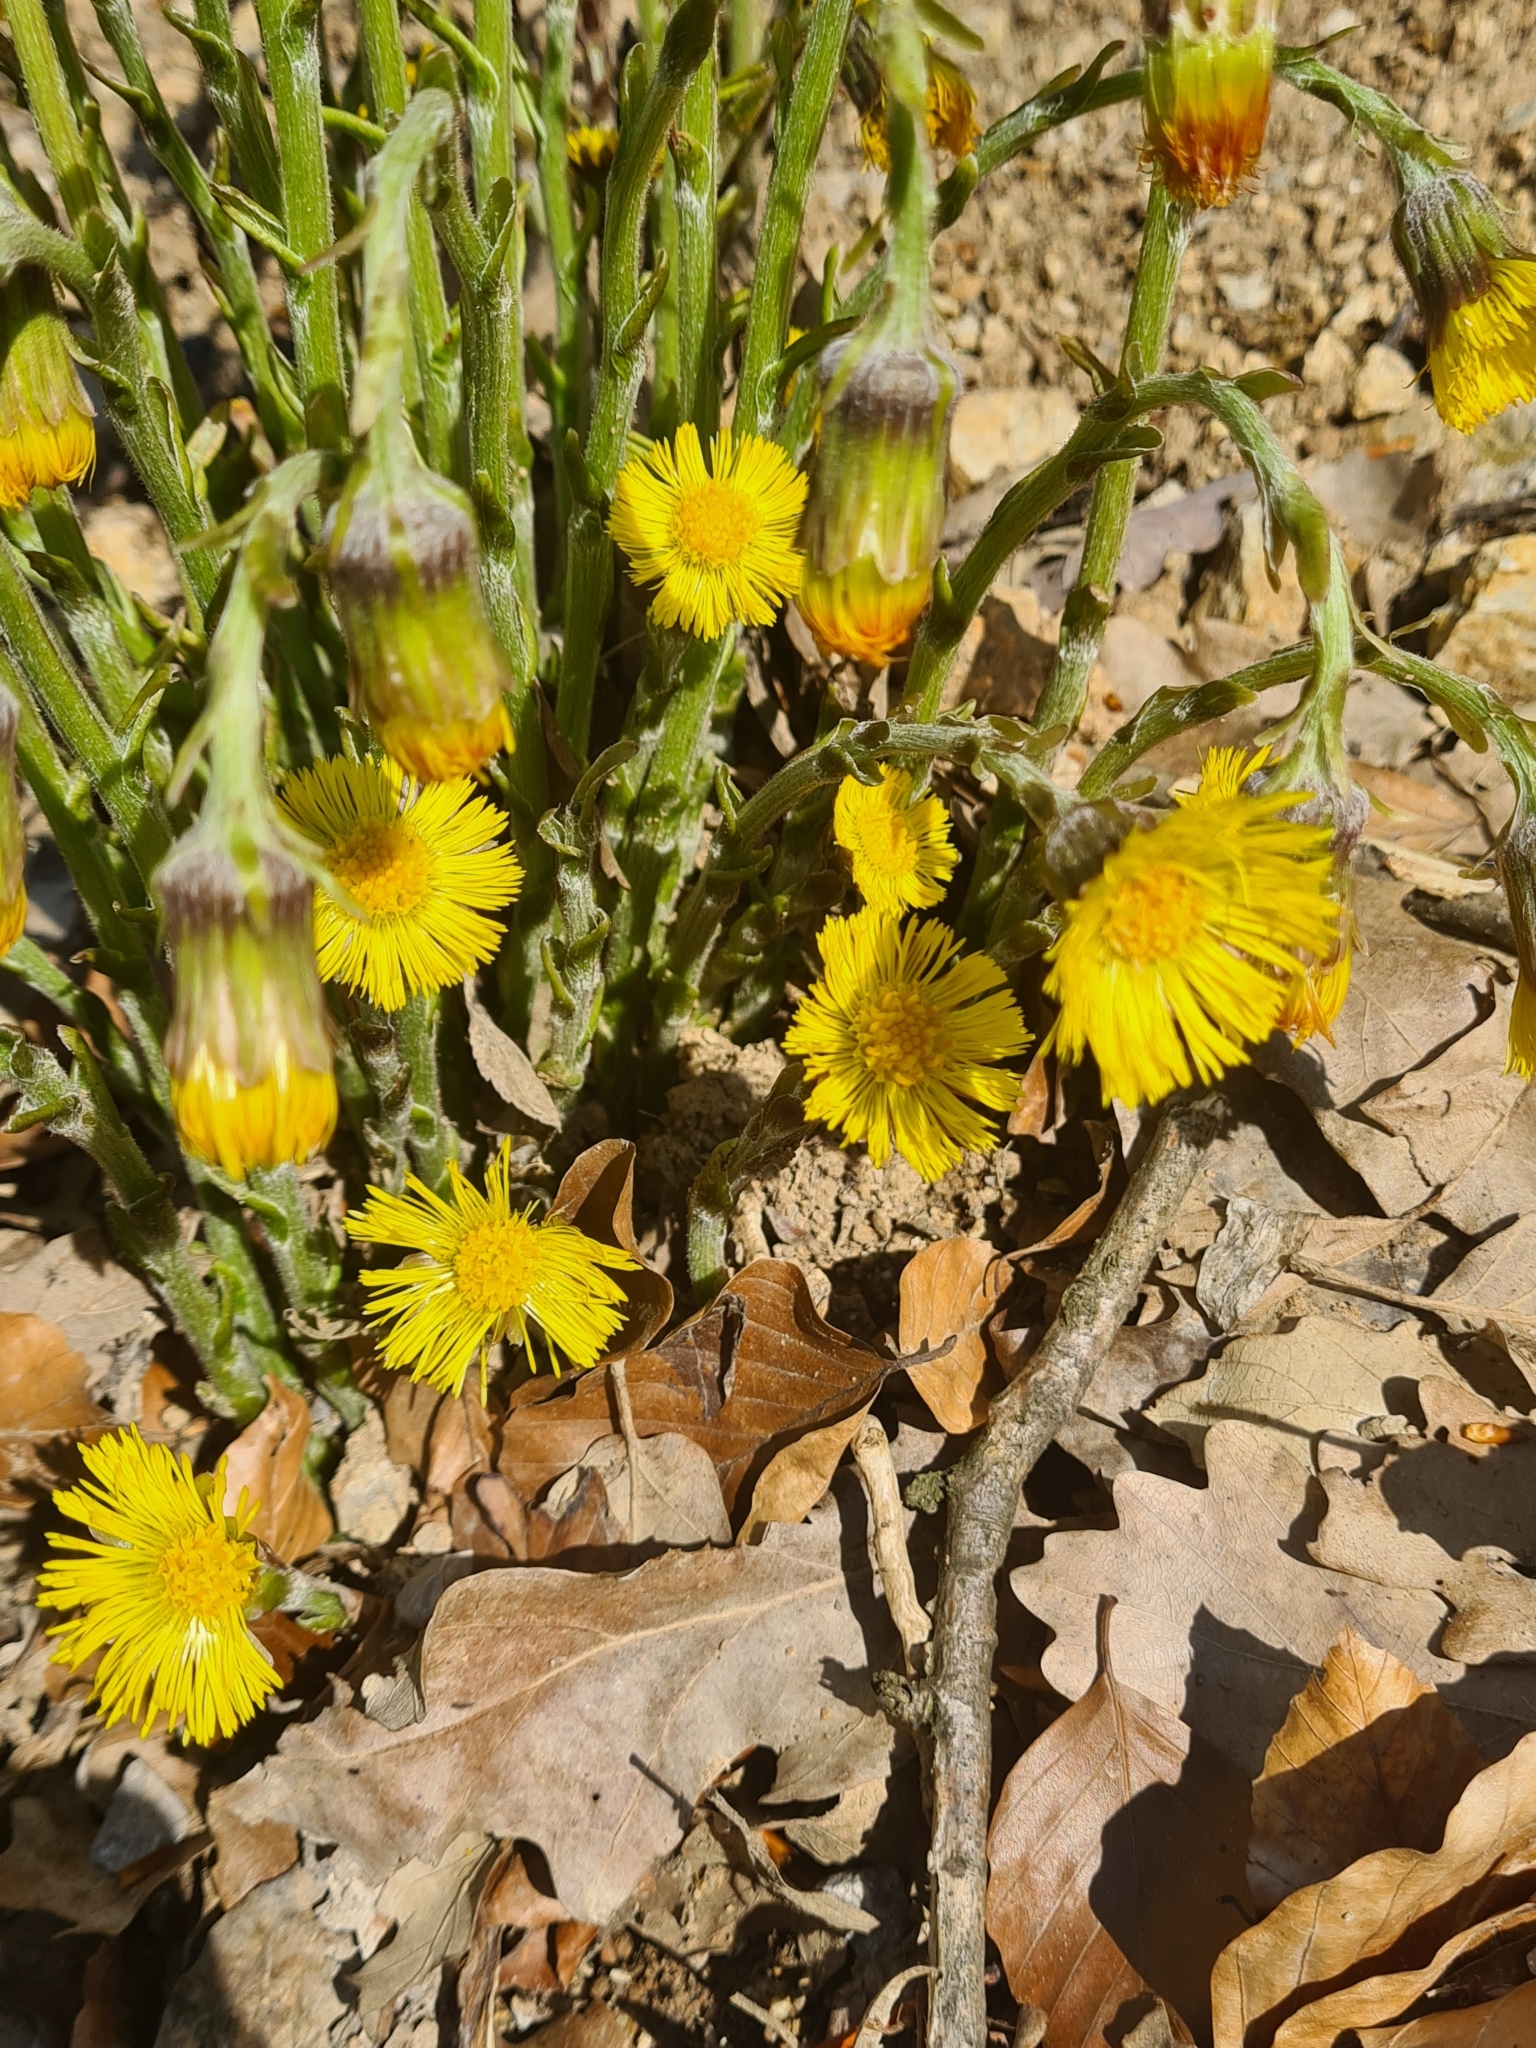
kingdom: Plantae
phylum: Tracheophyta
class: Magnoliopsida
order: Asterales
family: Asteraceae
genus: Tussilago
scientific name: Tussilago farfara
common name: Coltsfoot
